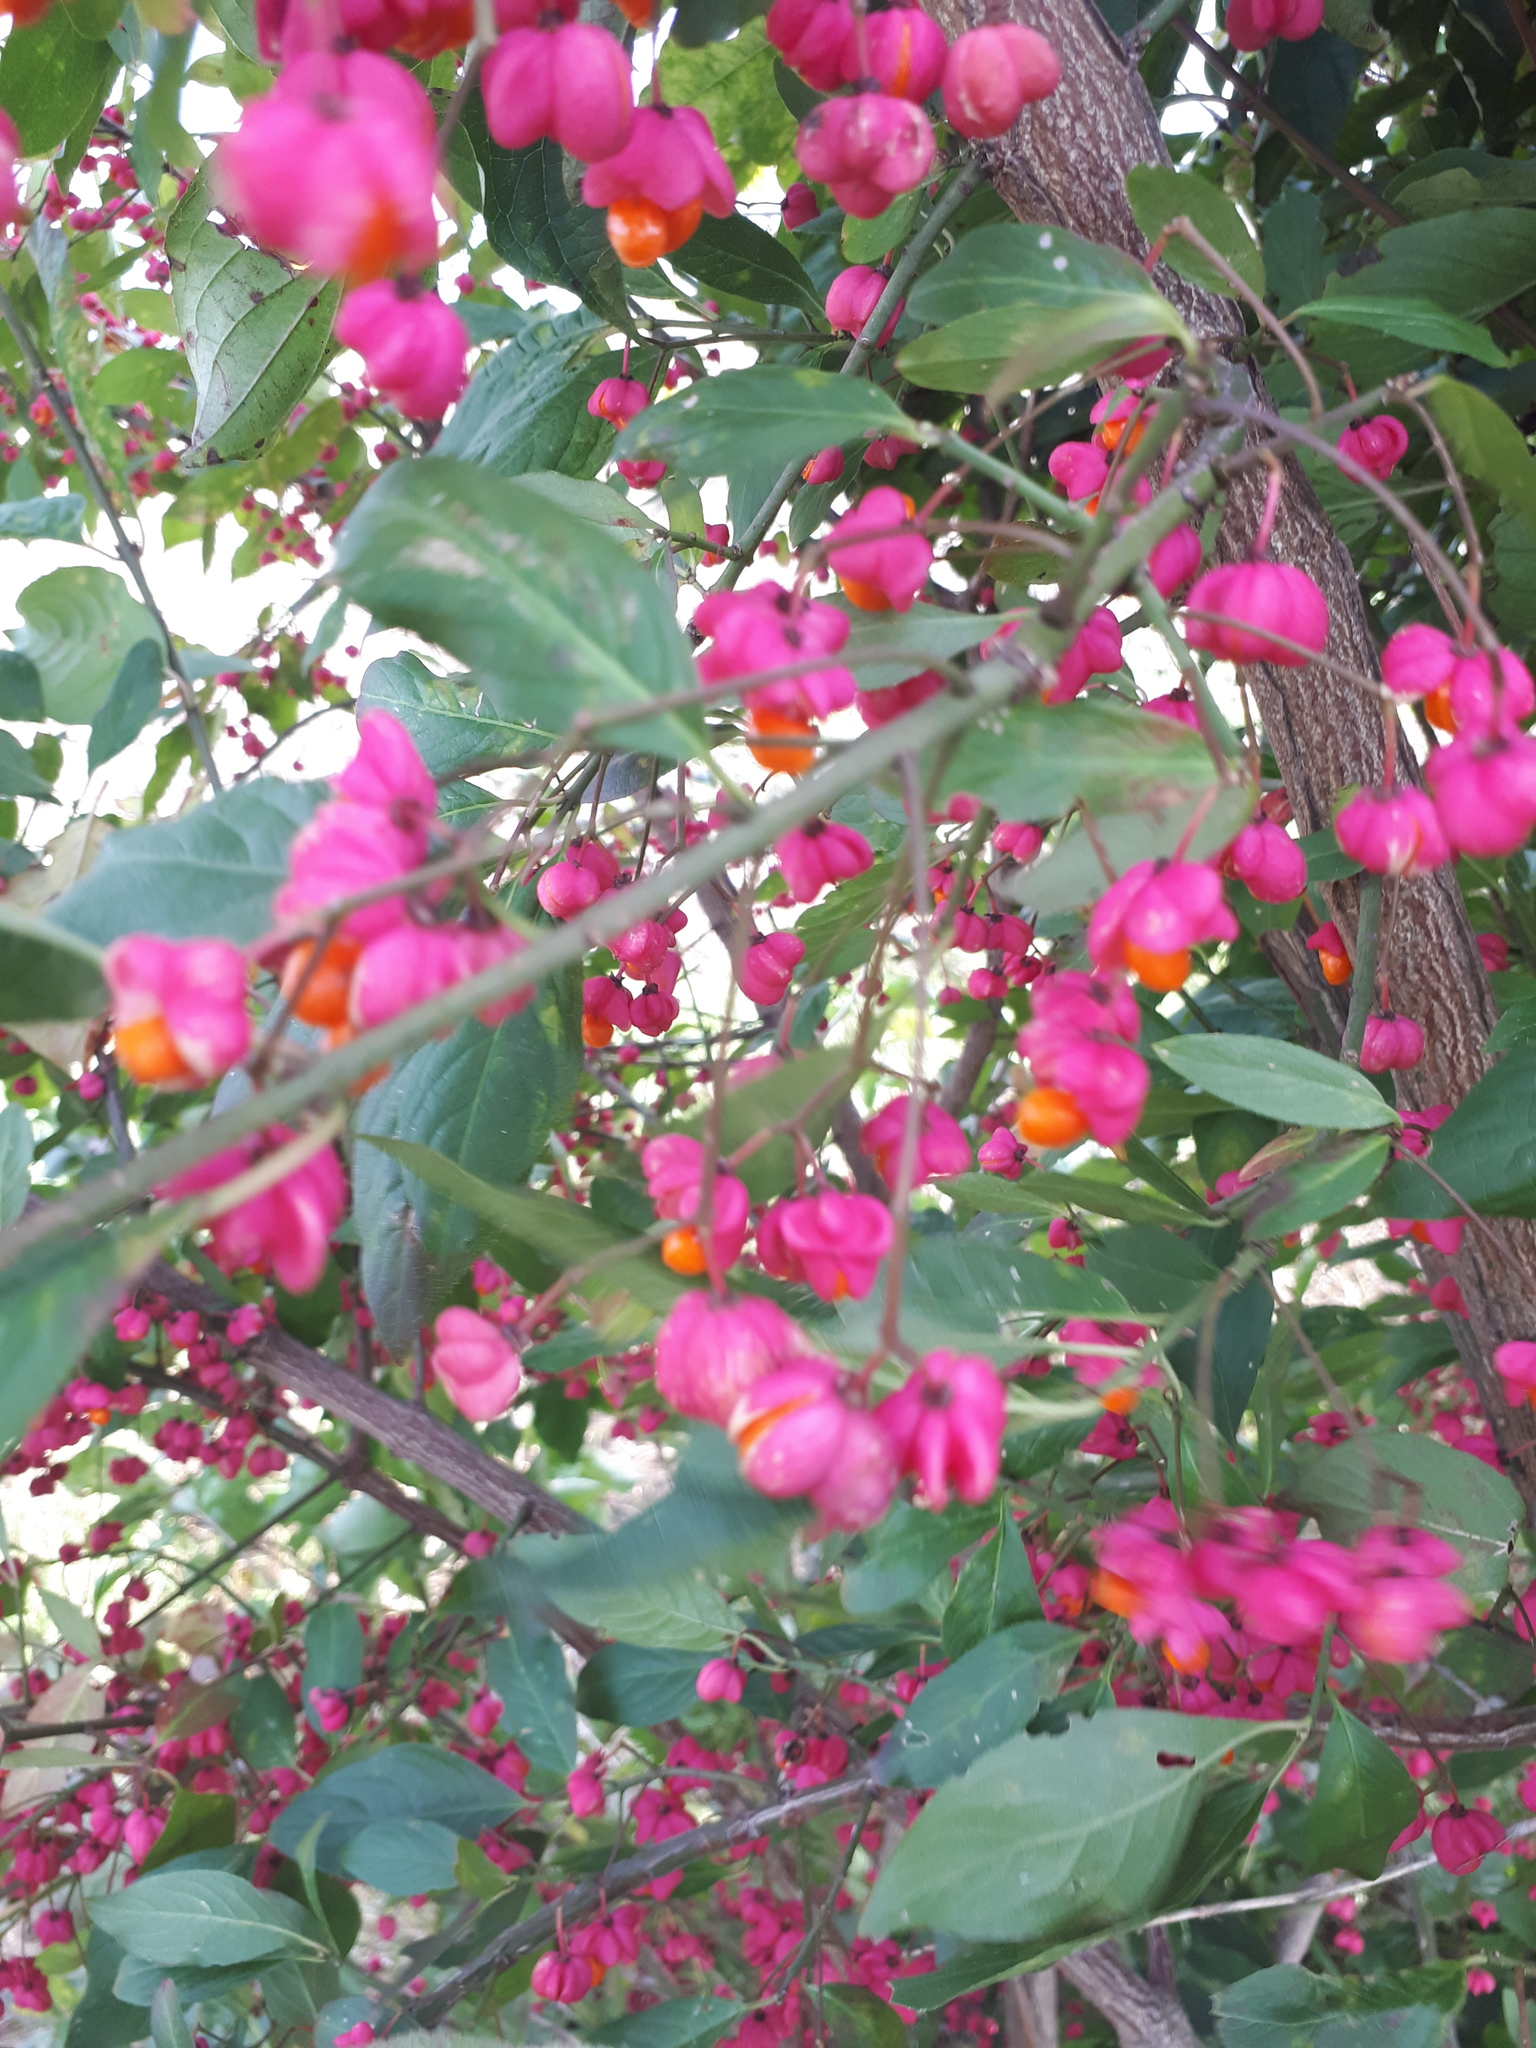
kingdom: Plantae
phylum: Tracheophyta
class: Magnoliopsida
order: Celastrales
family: Celastraceae
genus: Euonymus
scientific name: Euonymus europaeus
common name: Spindle
